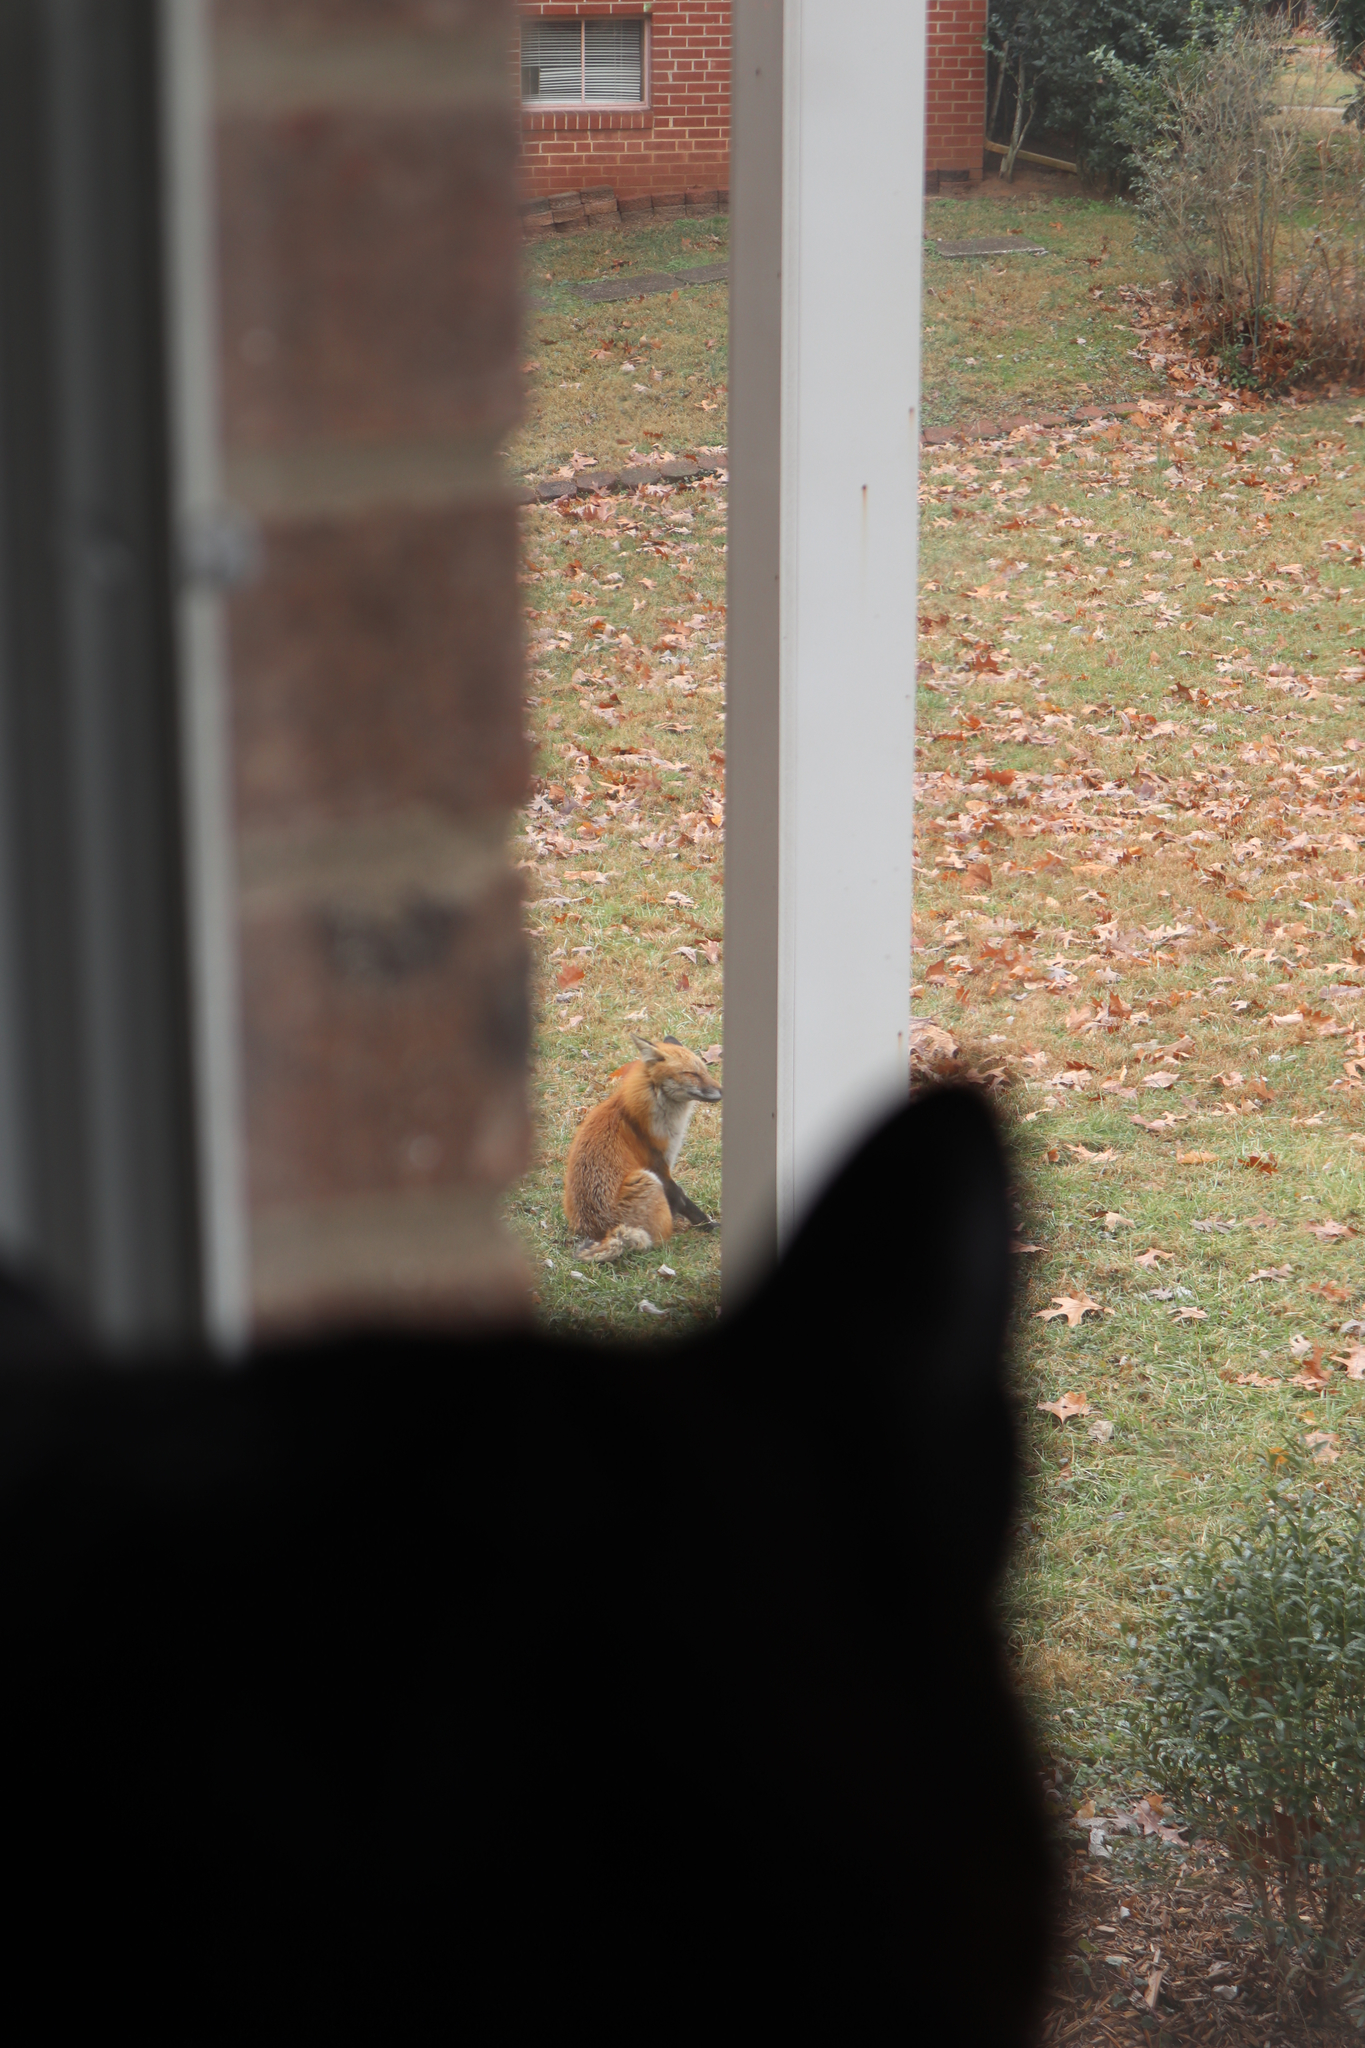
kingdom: Animalia
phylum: Chordata
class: Mammalia
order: Carnivora
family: Canidae
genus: Vulpes
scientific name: Vulpes vulpes
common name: Red fox
